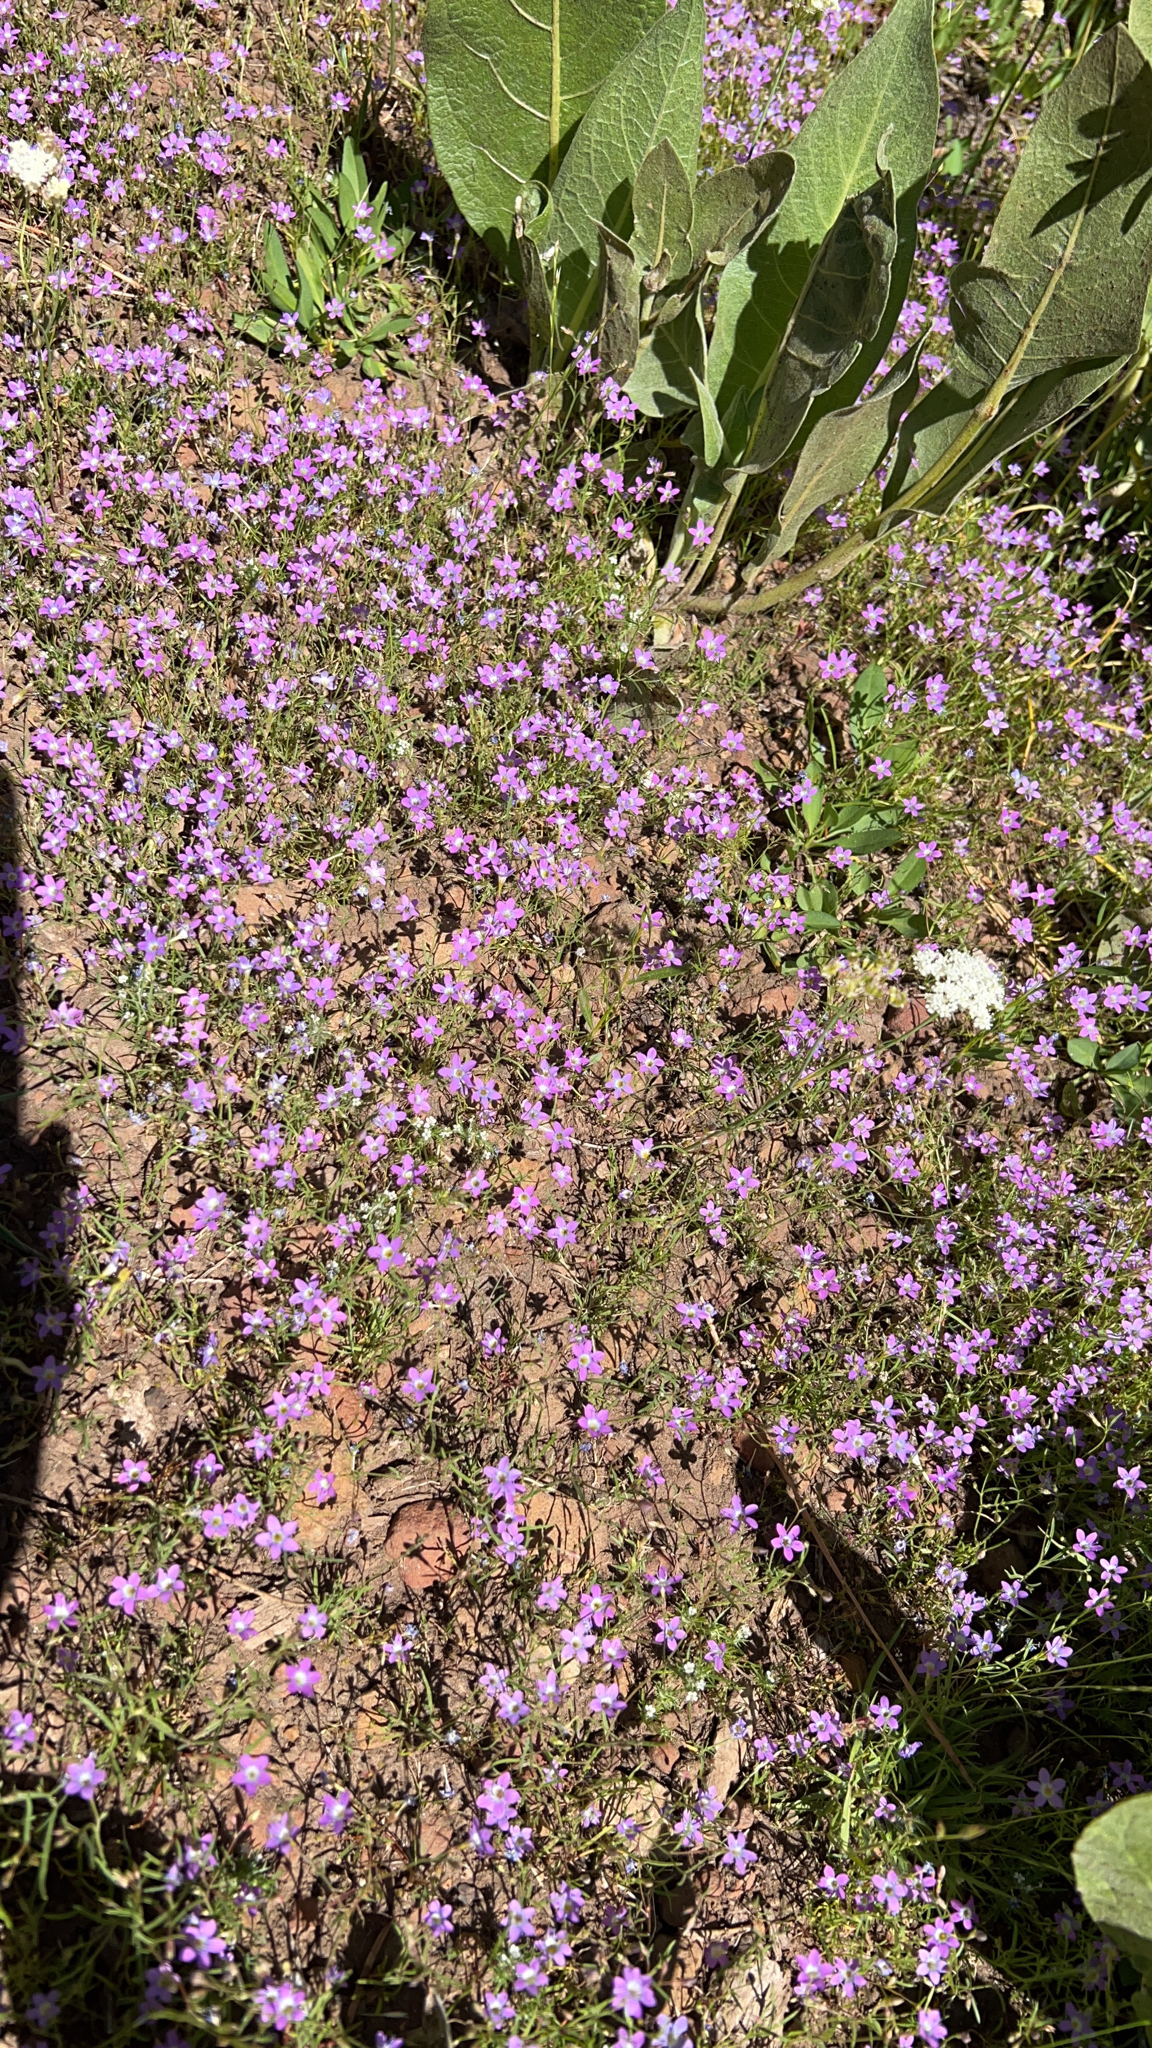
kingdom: Plantae
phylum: Tracheophyta
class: Magnoliopsida
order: Ericales
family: Polemoniaceae
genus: Navarretia
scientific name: Navarretia leptalea
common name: Bridges' pincushionplant
